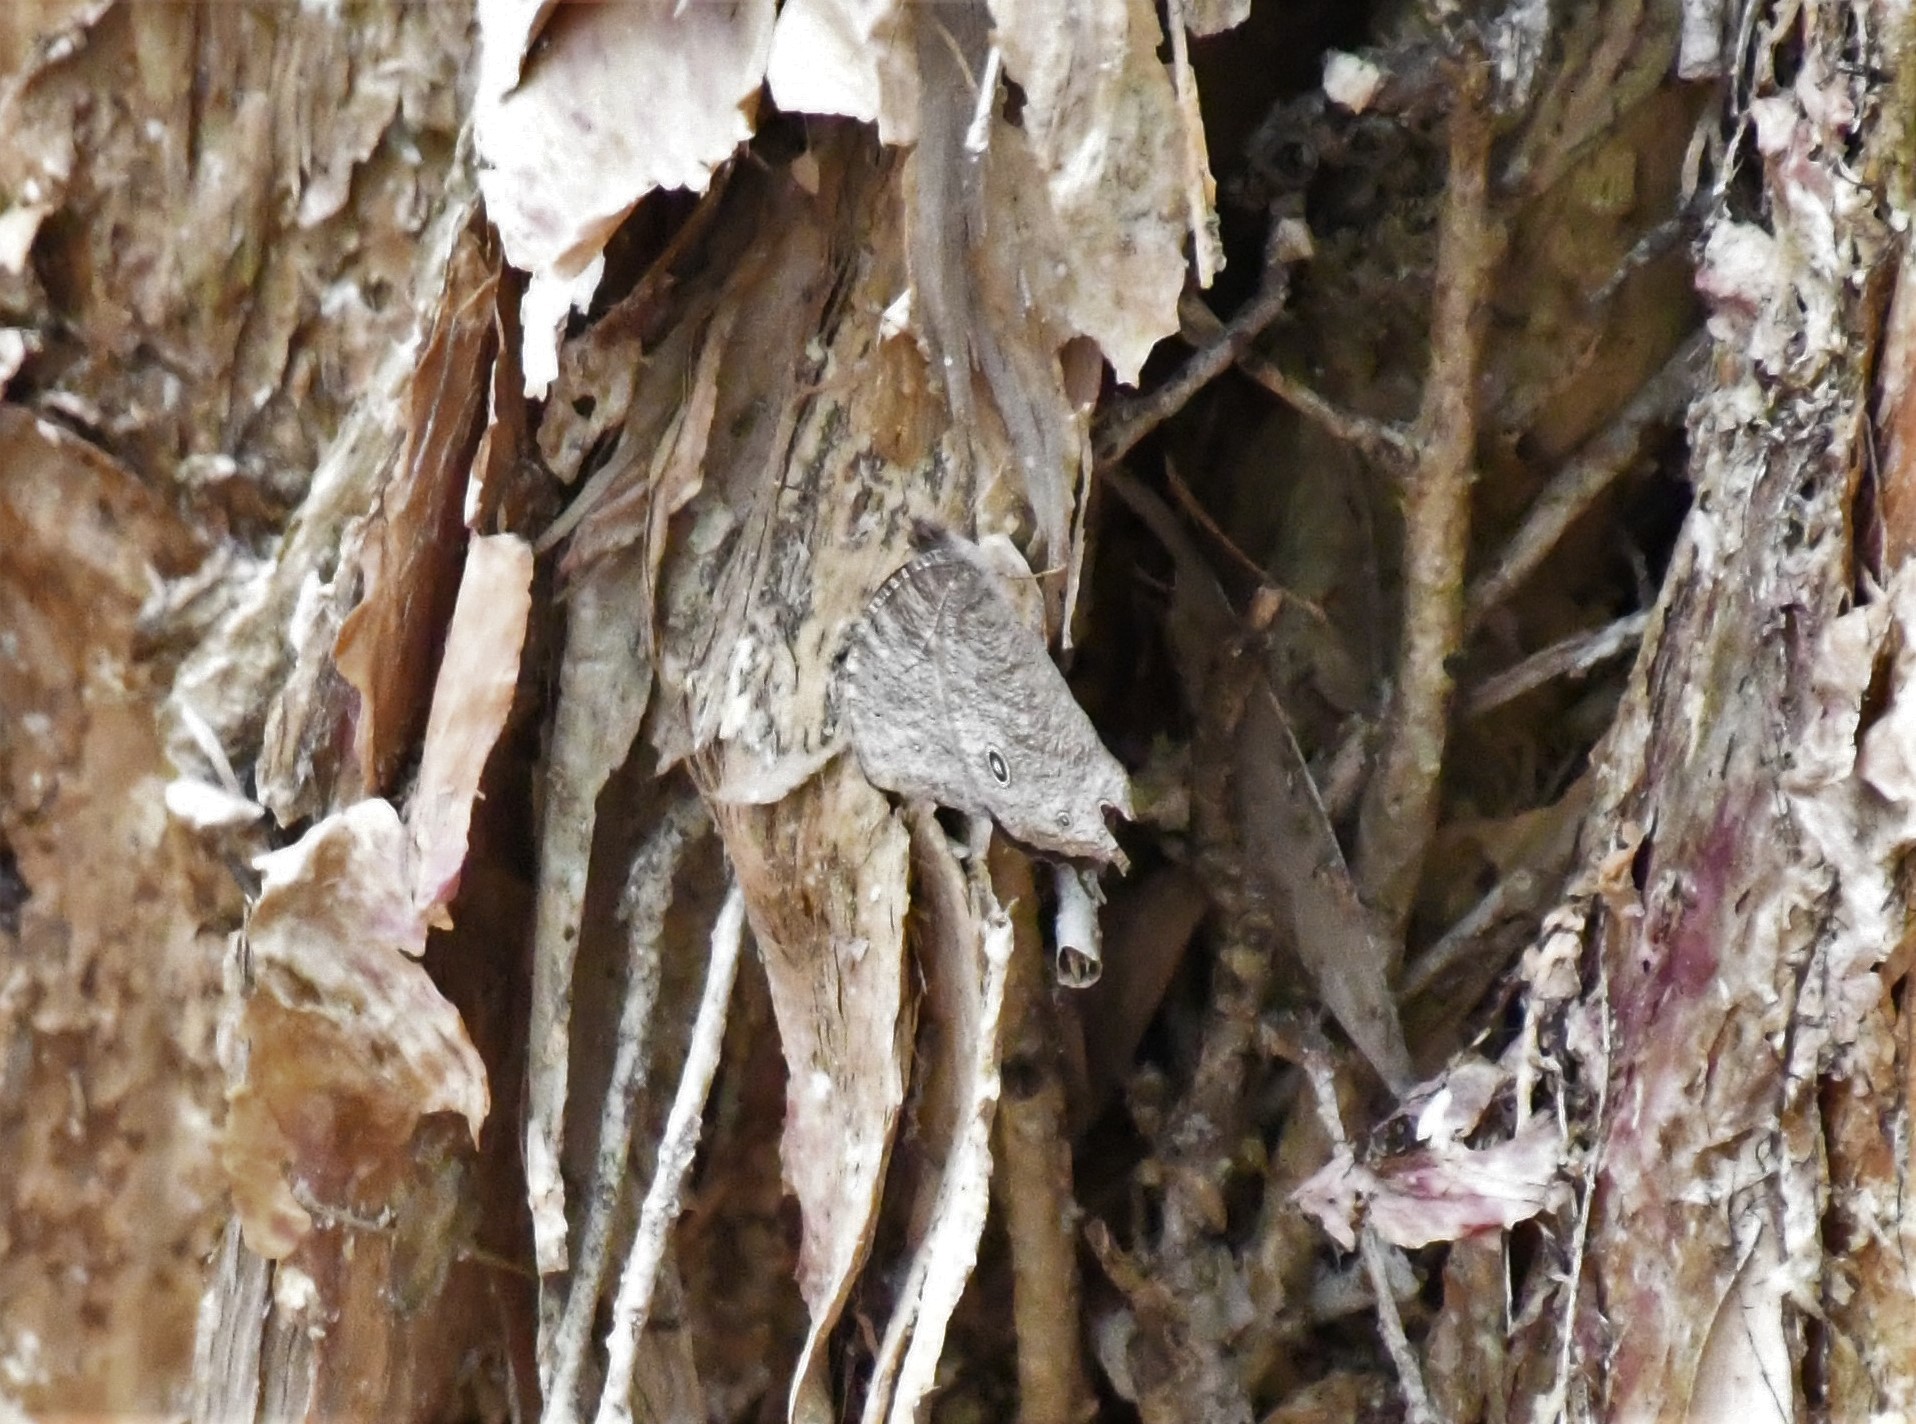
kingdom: Animalia
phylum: Arthropoda
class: Insecta
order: Lepidoptera
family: Nymphalidae
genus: Melanitis
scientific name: Melanitis leda
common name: Twilight brown
